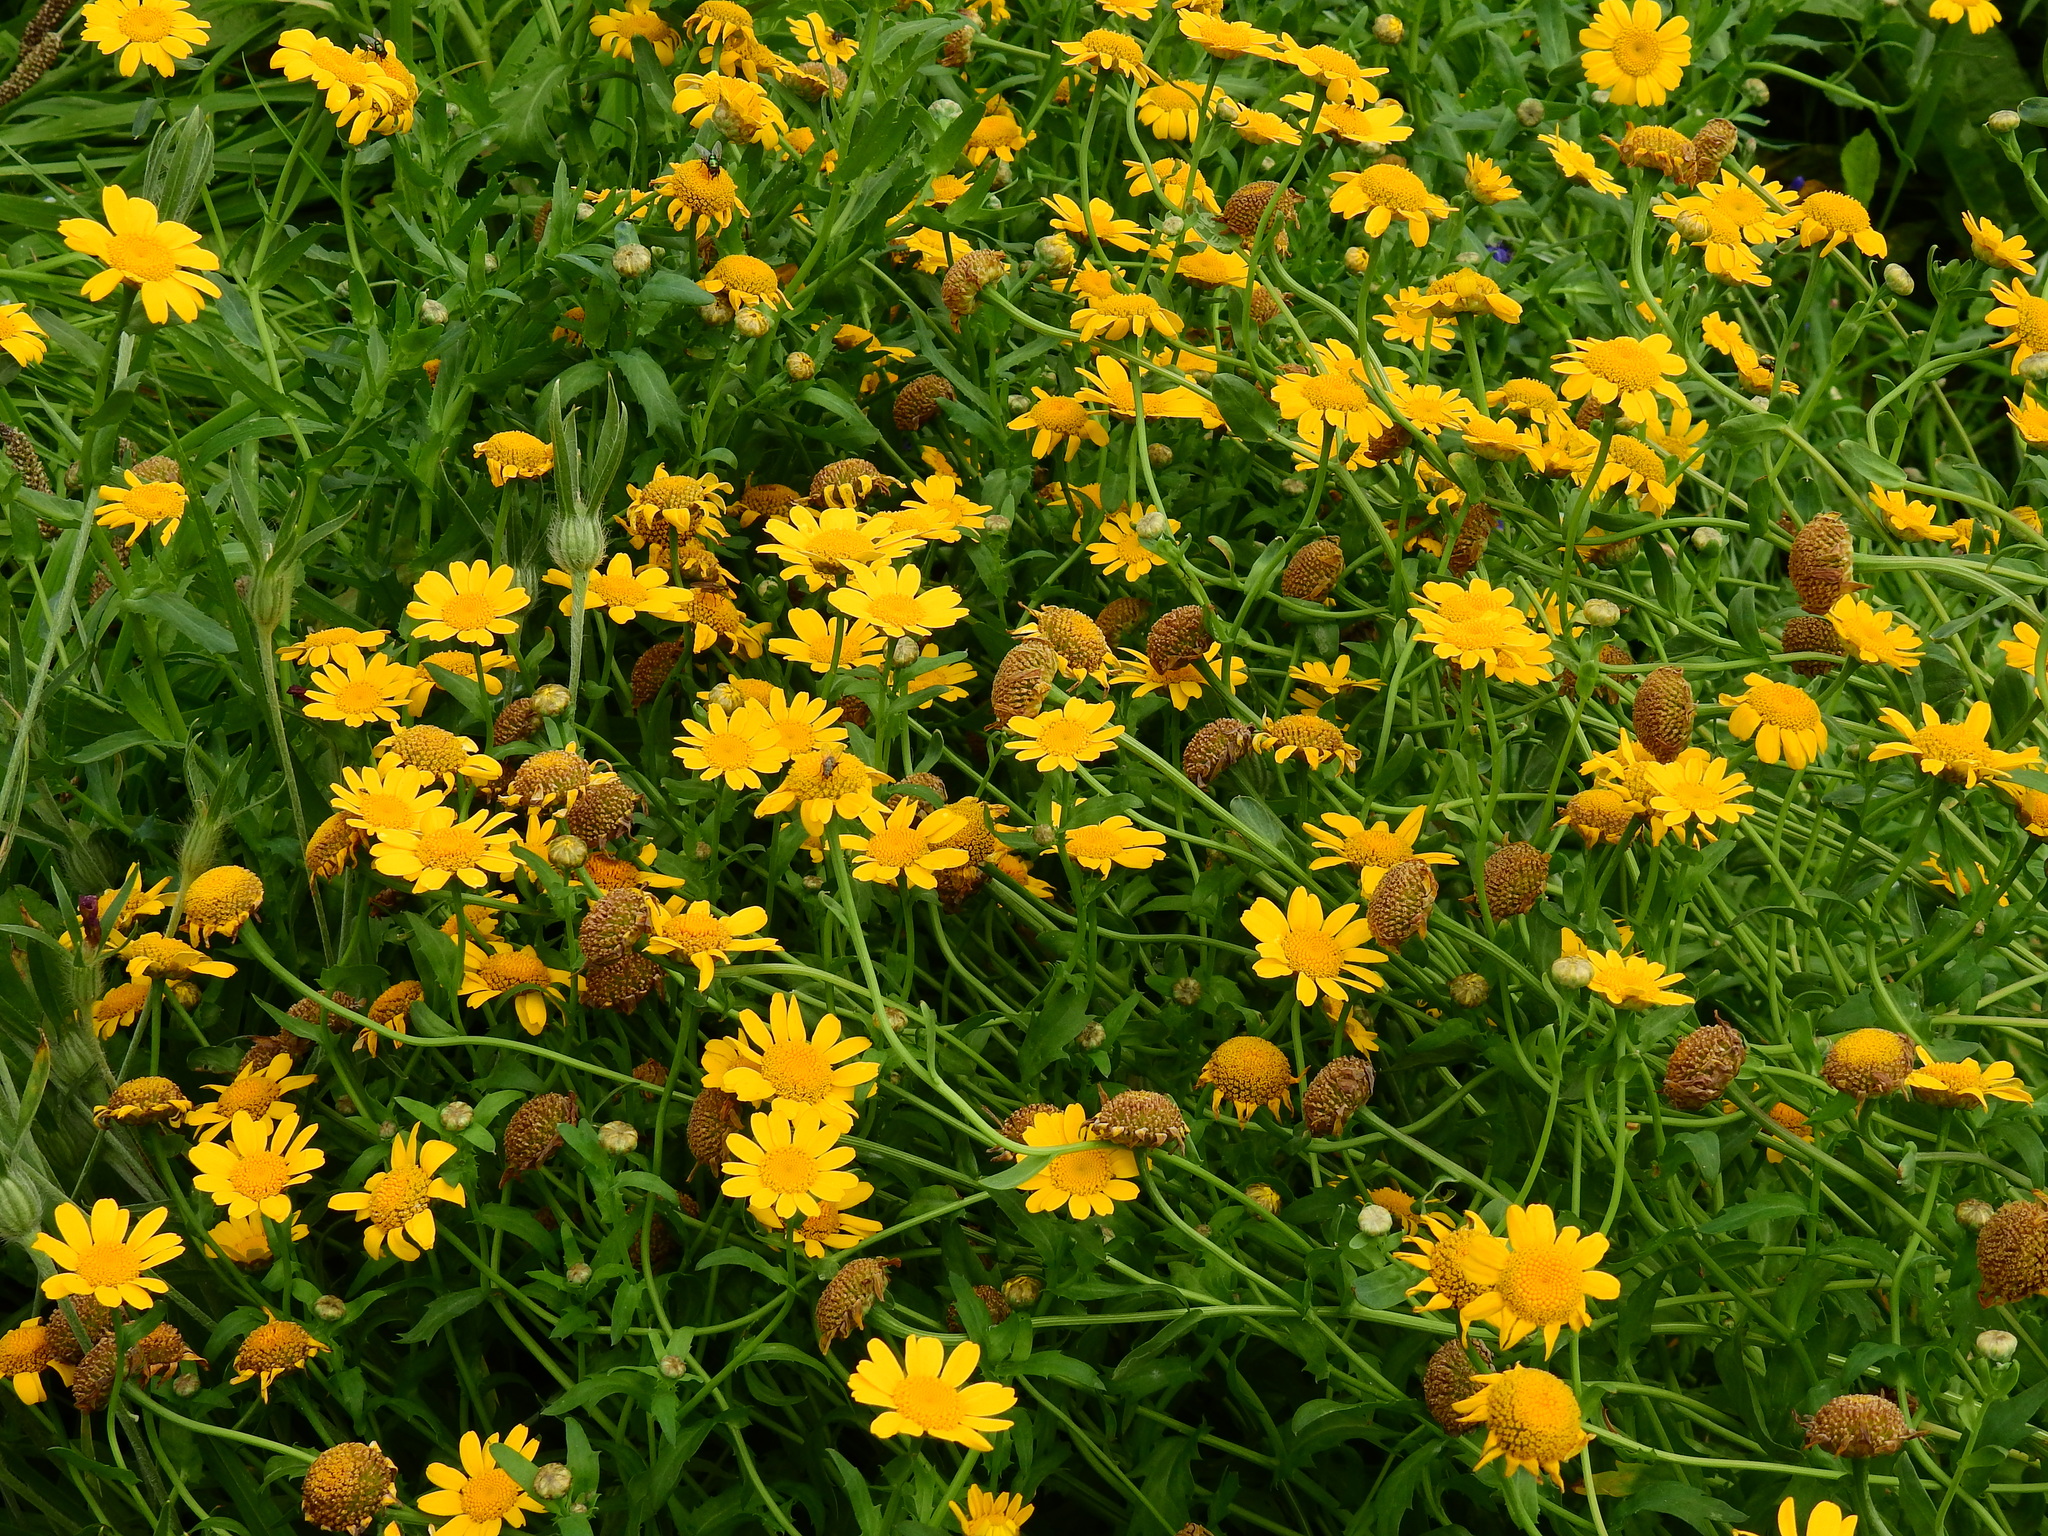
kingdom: Plantae
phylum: Tracheophyta
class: Magnoliopsida
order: Asterales
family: Asteraceae
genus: Glebionis
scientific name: Glebionis segetum
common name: Corndaisy
